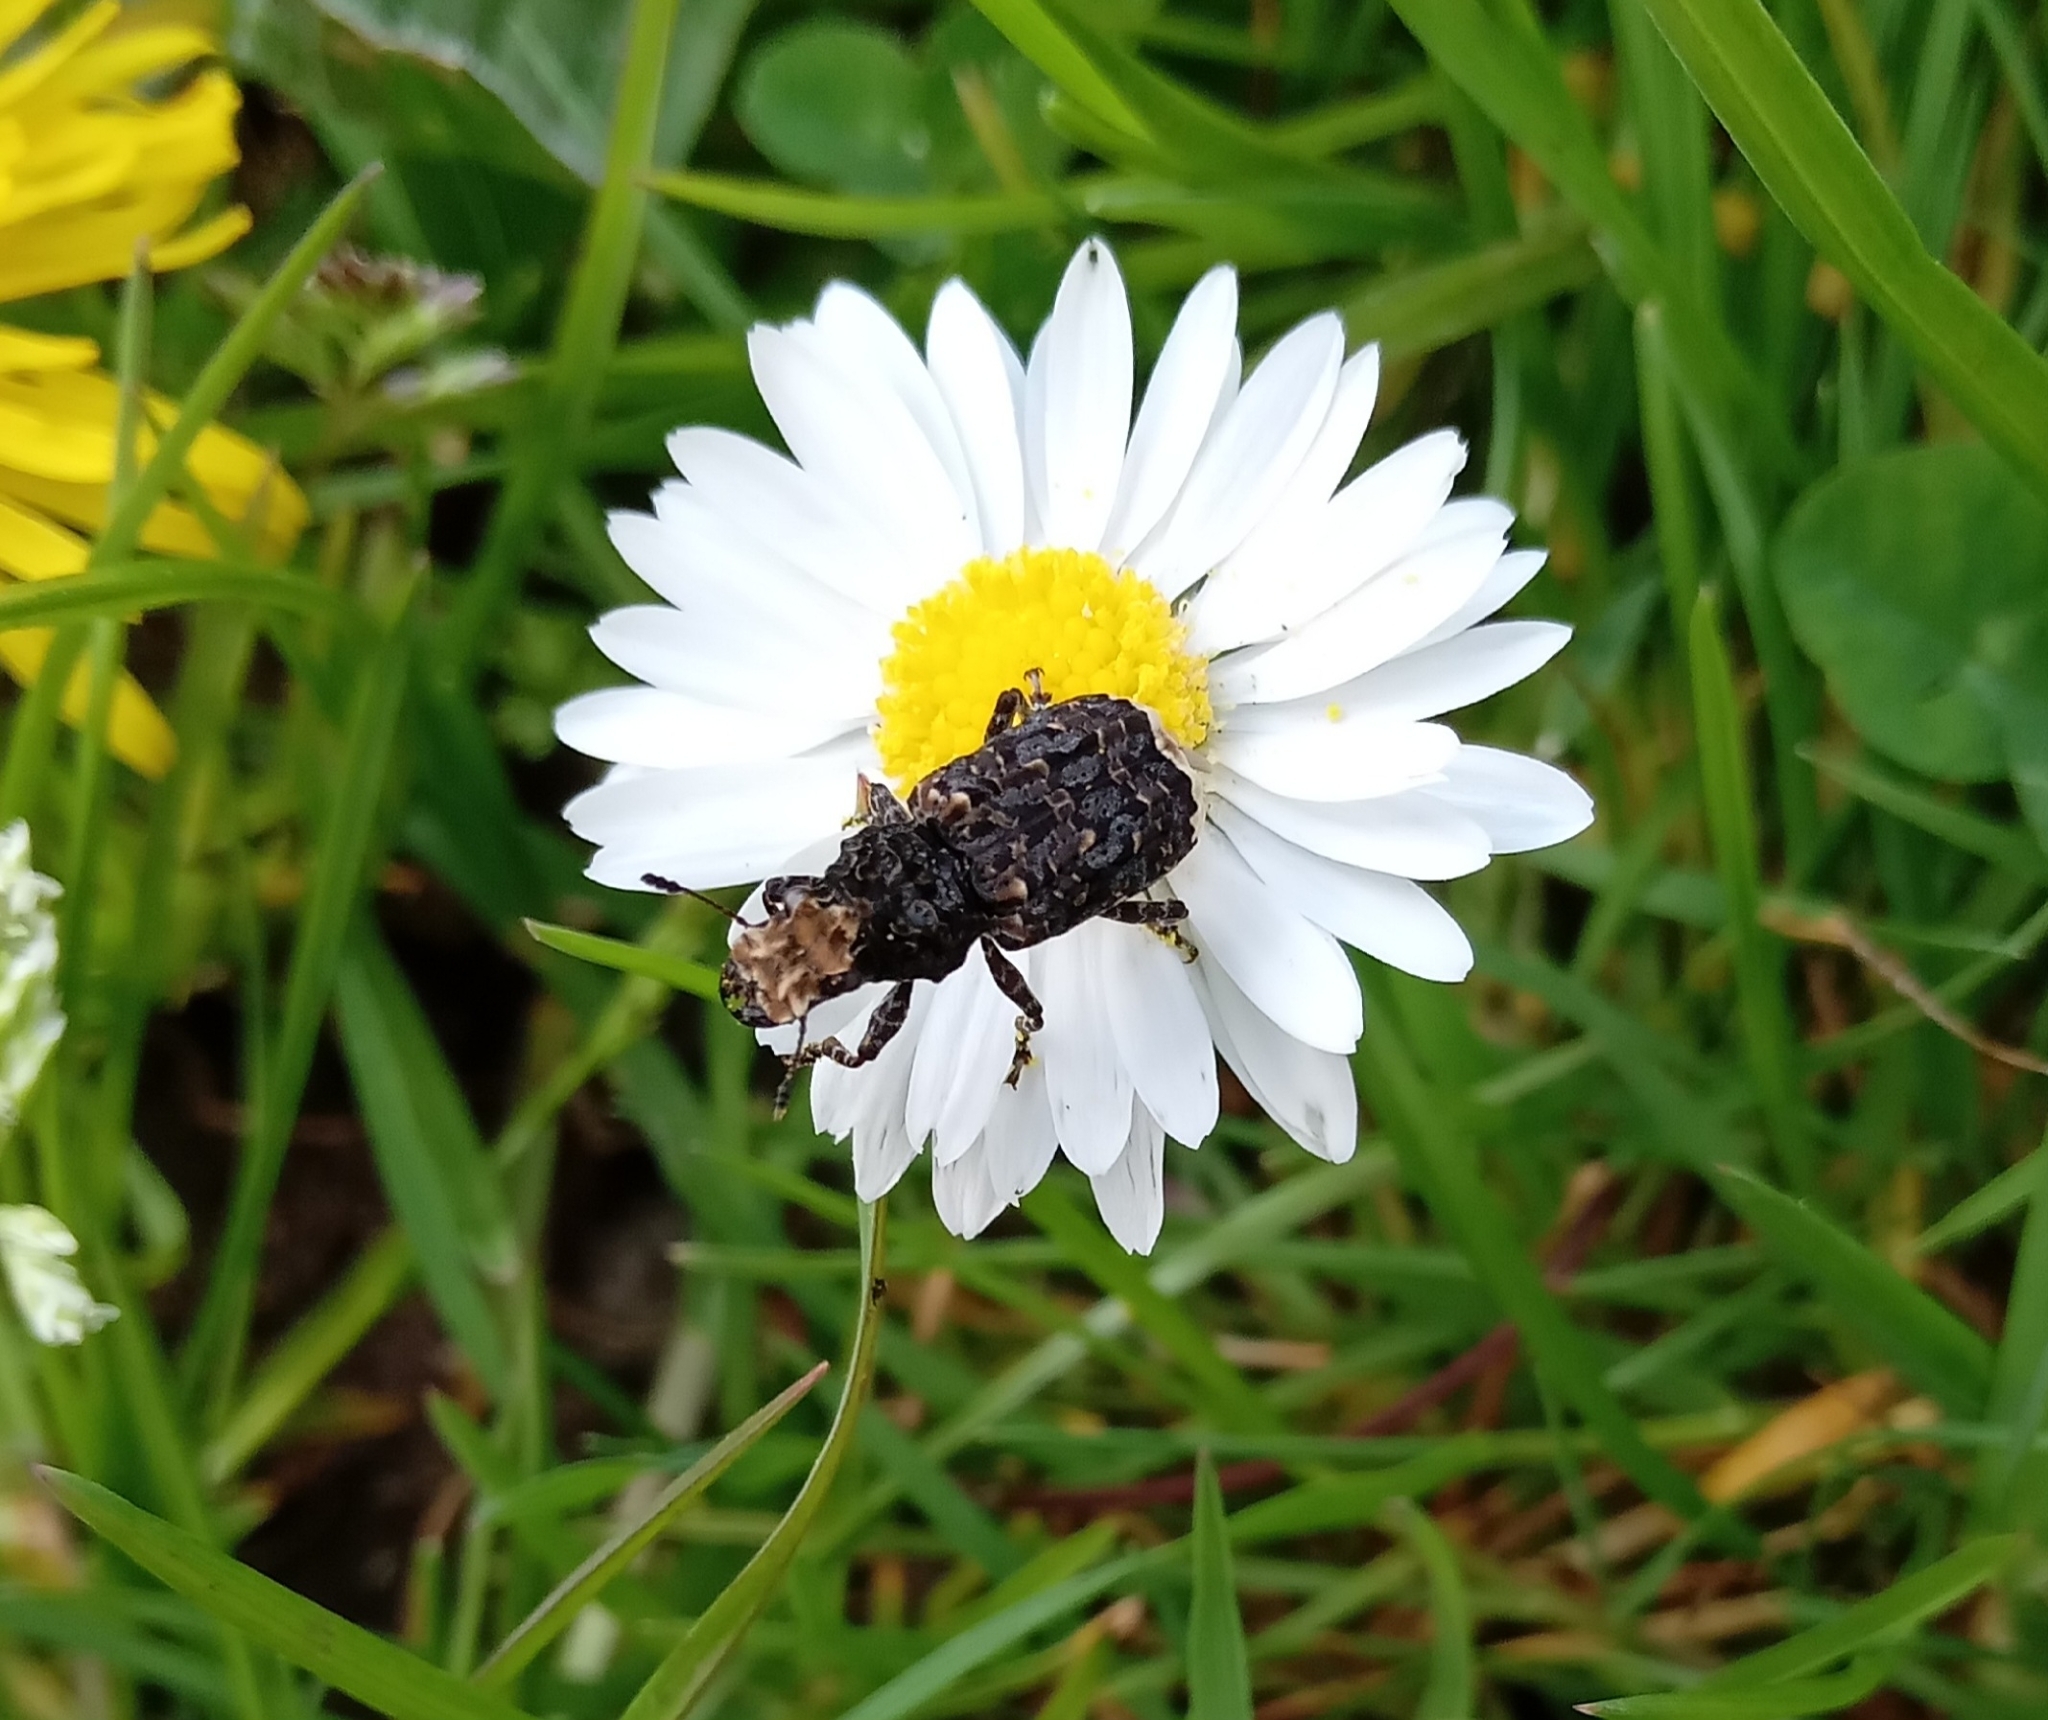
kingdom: Animalia
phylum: Arthropoda
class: Insecta
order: Coleoptera
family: Anthribidae
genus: Platyrhinus
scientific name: Platyrhinus resinosus
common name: Cramp-ball fungus weevil
